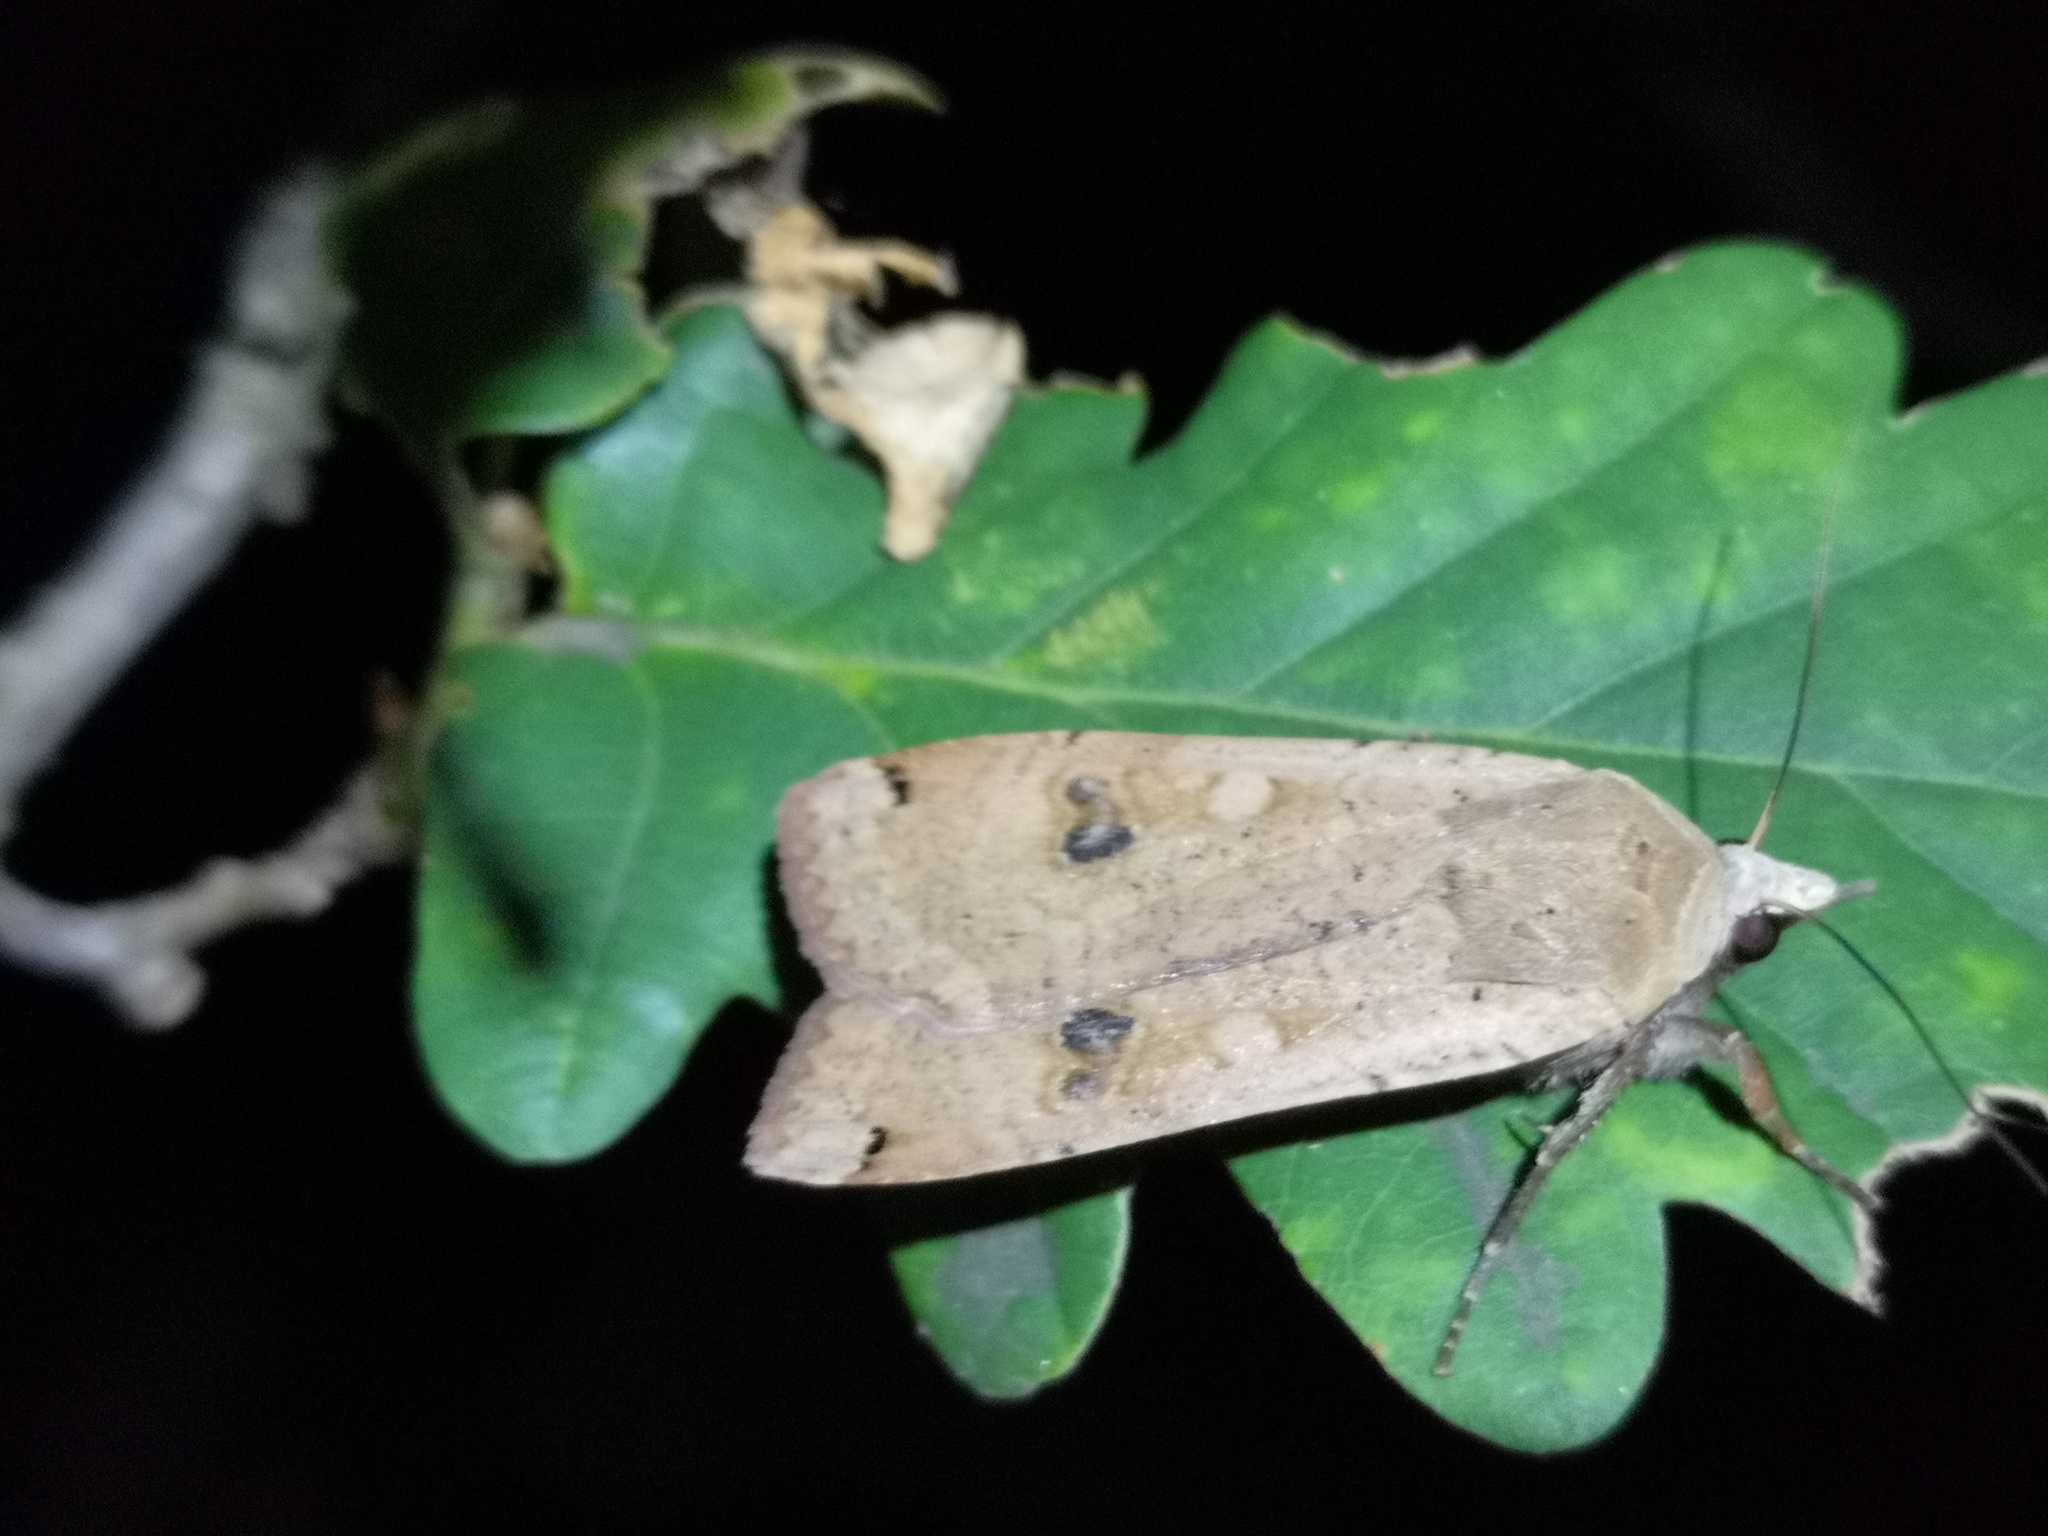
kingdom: Animalia
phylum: Arthropoda
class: Insecta
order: Lepidoptera
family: Noctuidae
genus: Noctua
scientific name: Noctua pronuba
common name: Large yellow underwing
